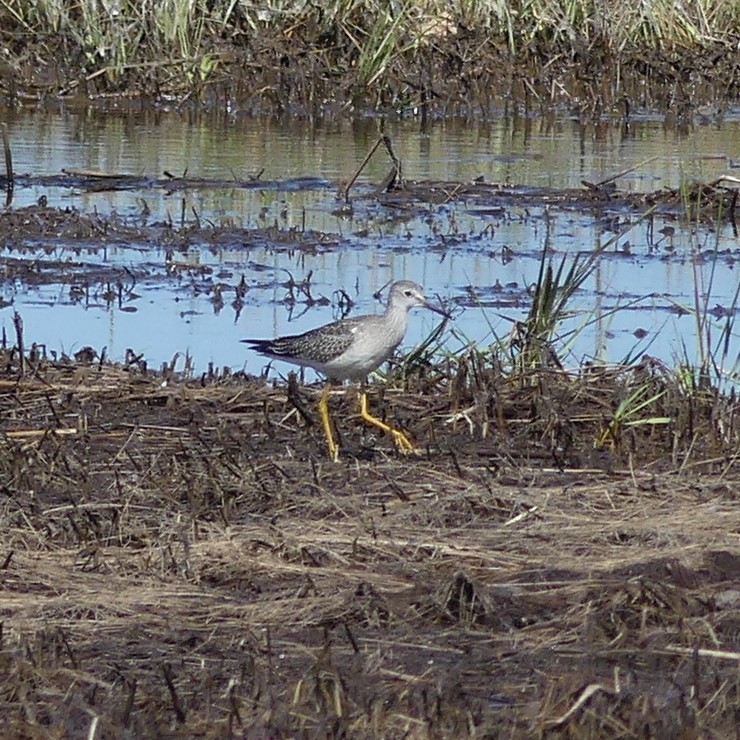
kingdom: Animalia
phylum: Chordata
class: Aves
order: Charadriiformes
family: Scolopacidae
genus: Tringa
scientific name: Tringa flavipes
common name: Lesser yellowlegs
